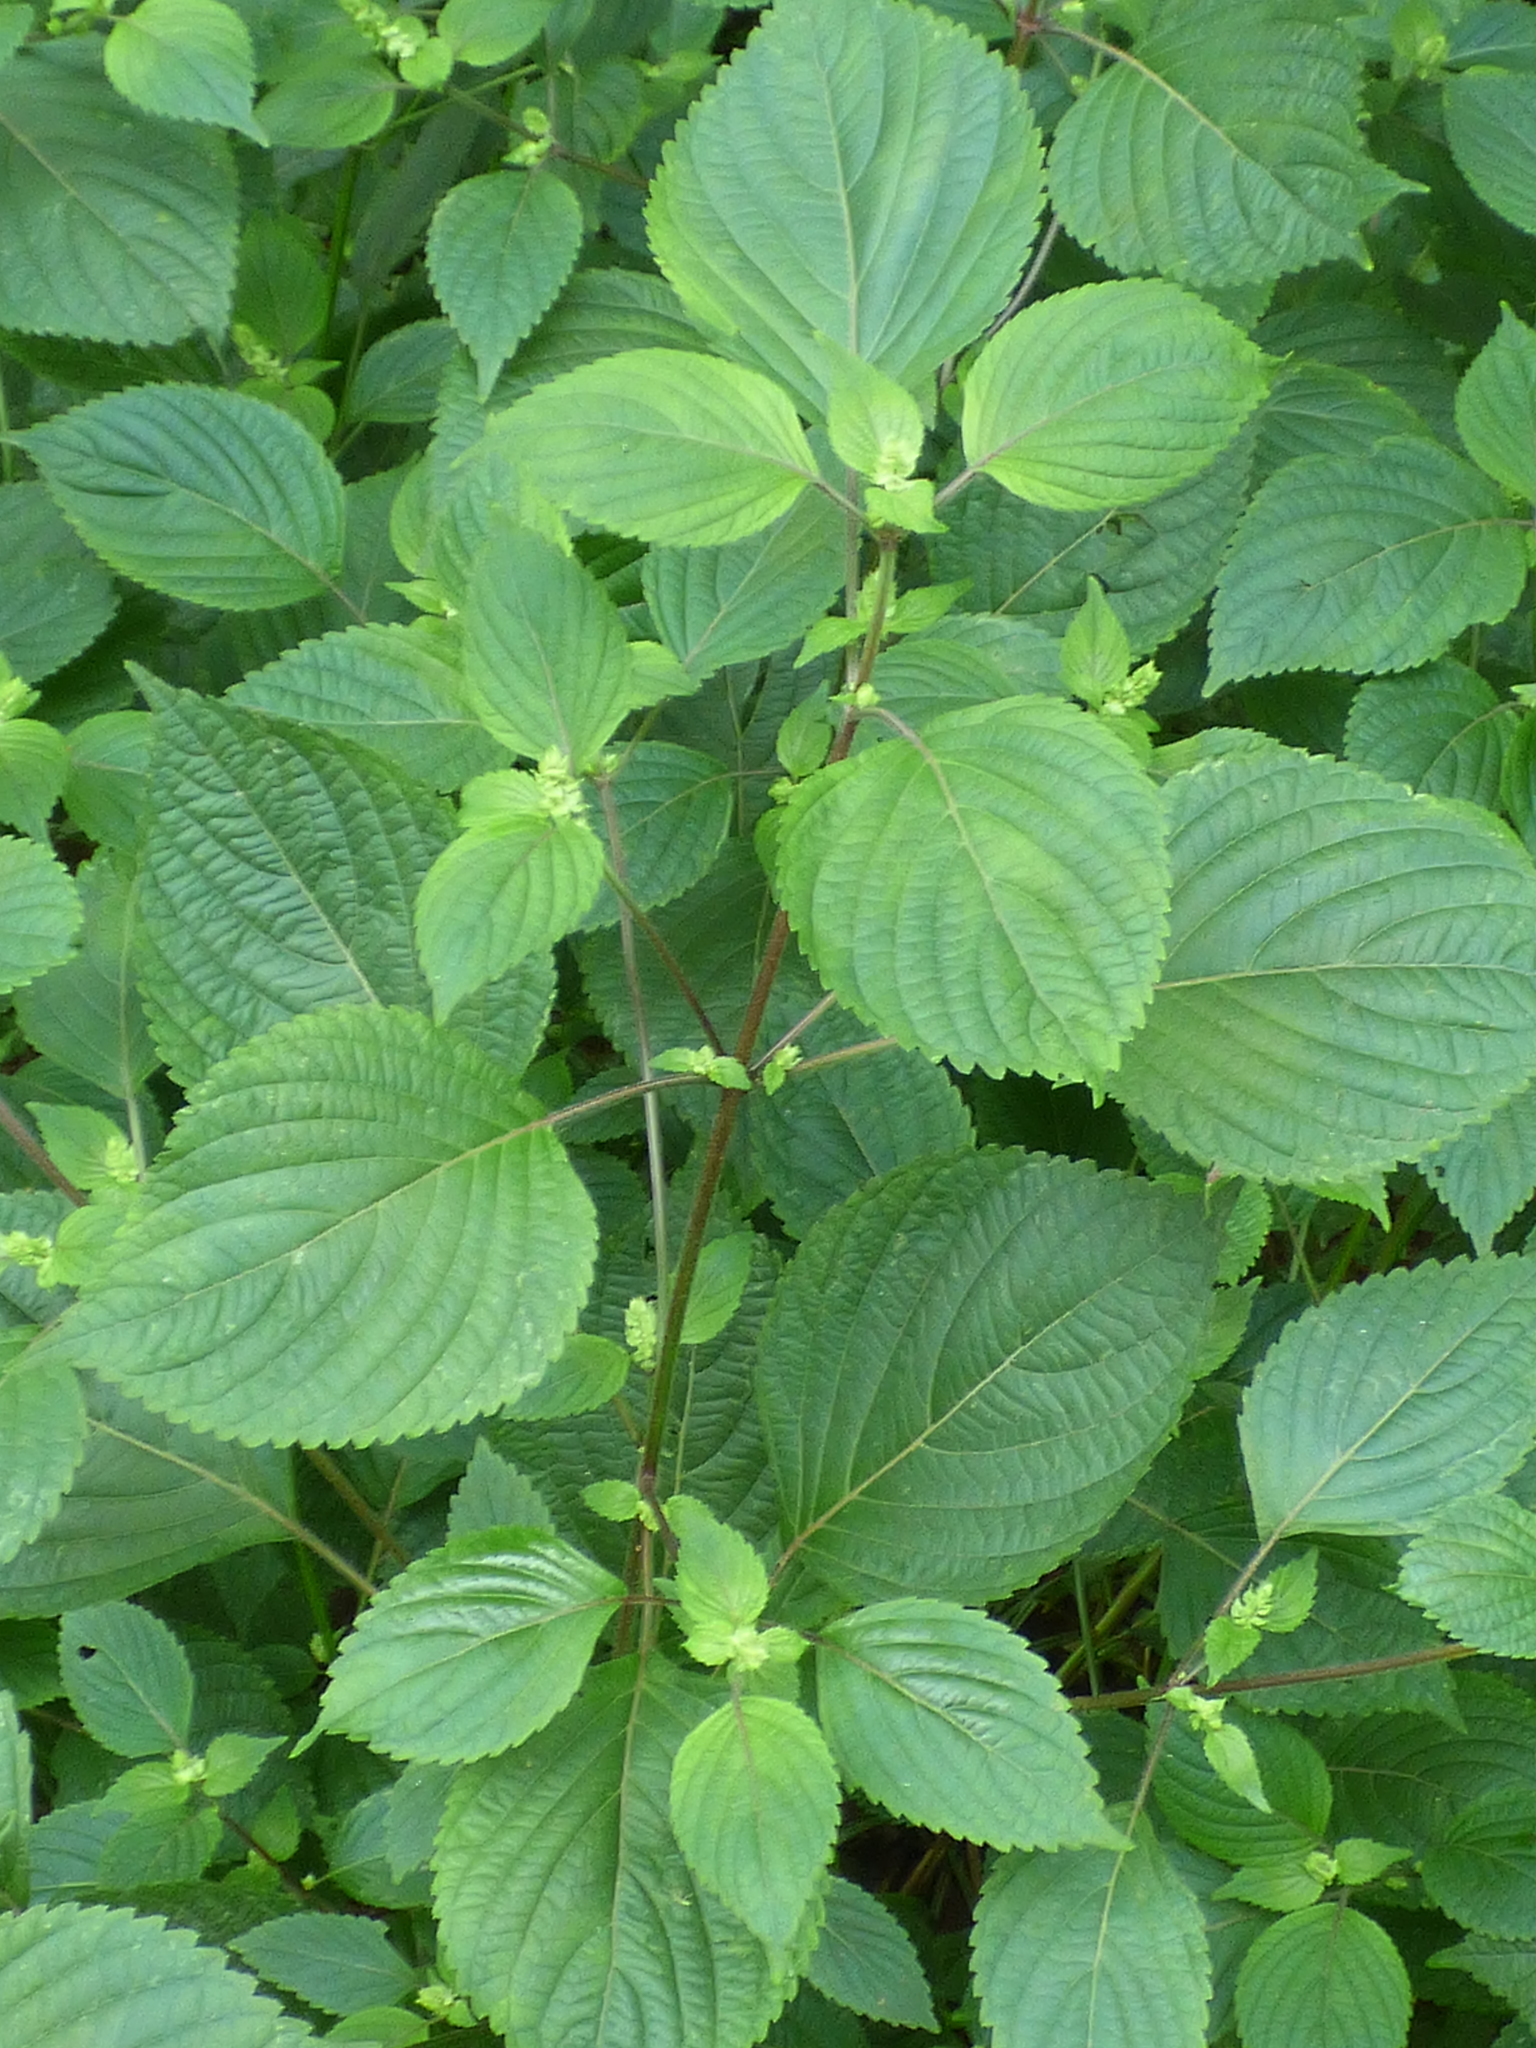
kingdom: Plantae
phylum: Tracheophyta
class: Magnoliopsida
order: Lamiales
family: Lamiaceae
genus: Perilla
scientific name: Perilla frutescens
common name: Perilla
